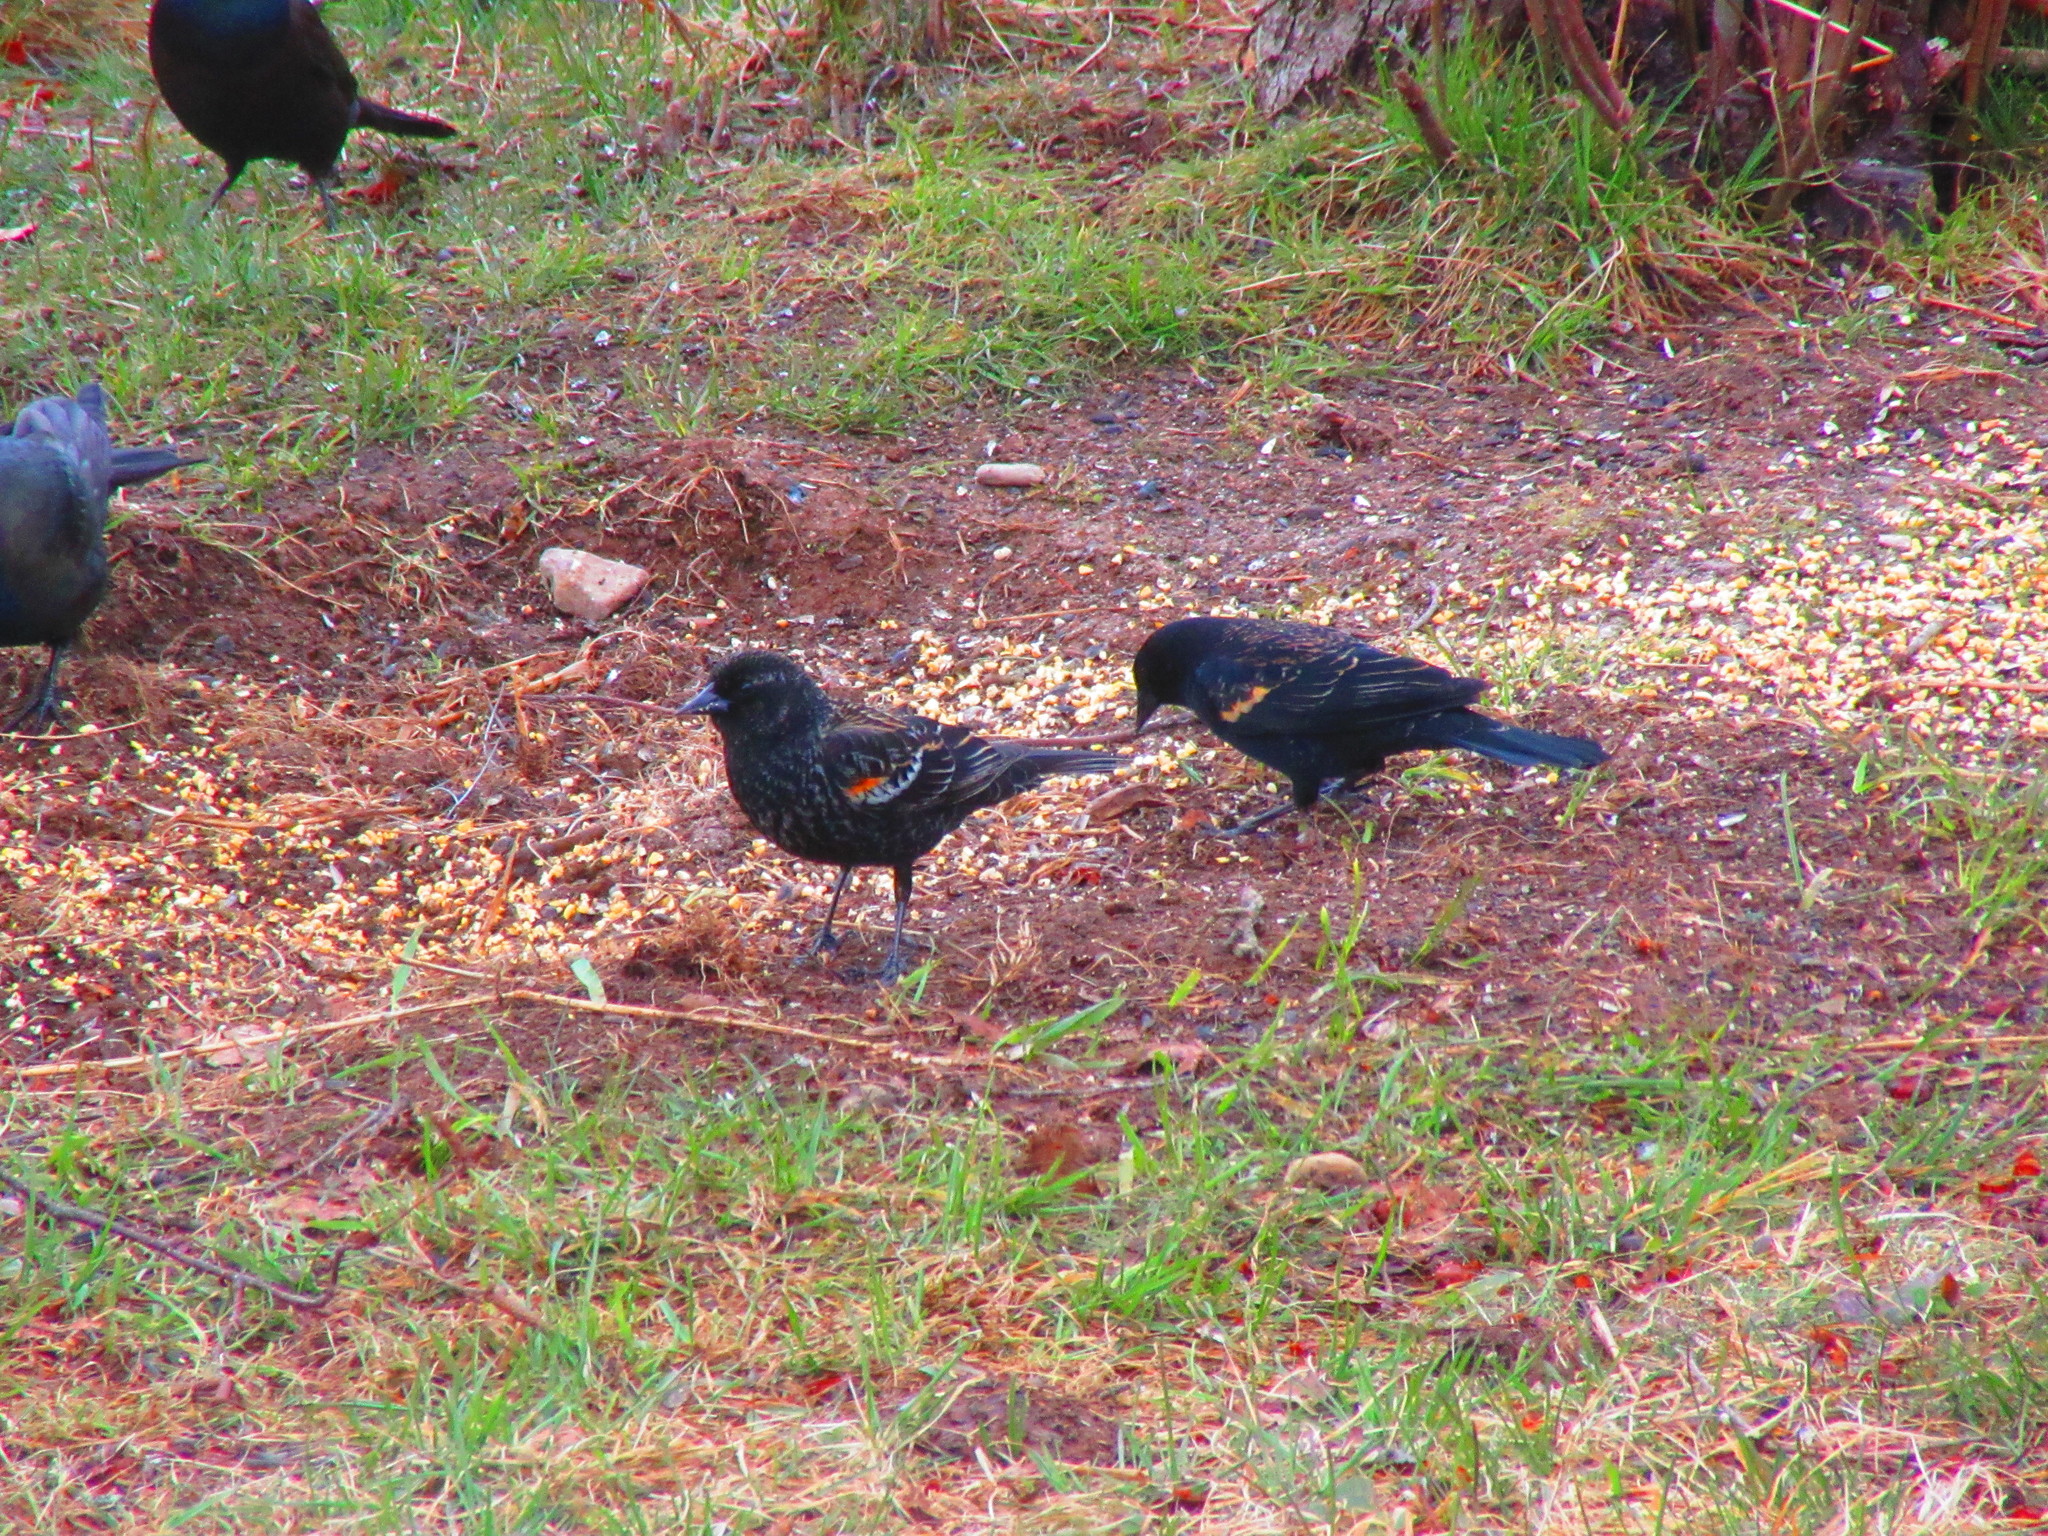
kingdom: Animalia
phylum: Chordata
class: Aves
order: Passeriformes
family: Icteridae
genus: Agelaius
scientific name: Agelaius phoeniceus
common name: Red-winged blackbird
